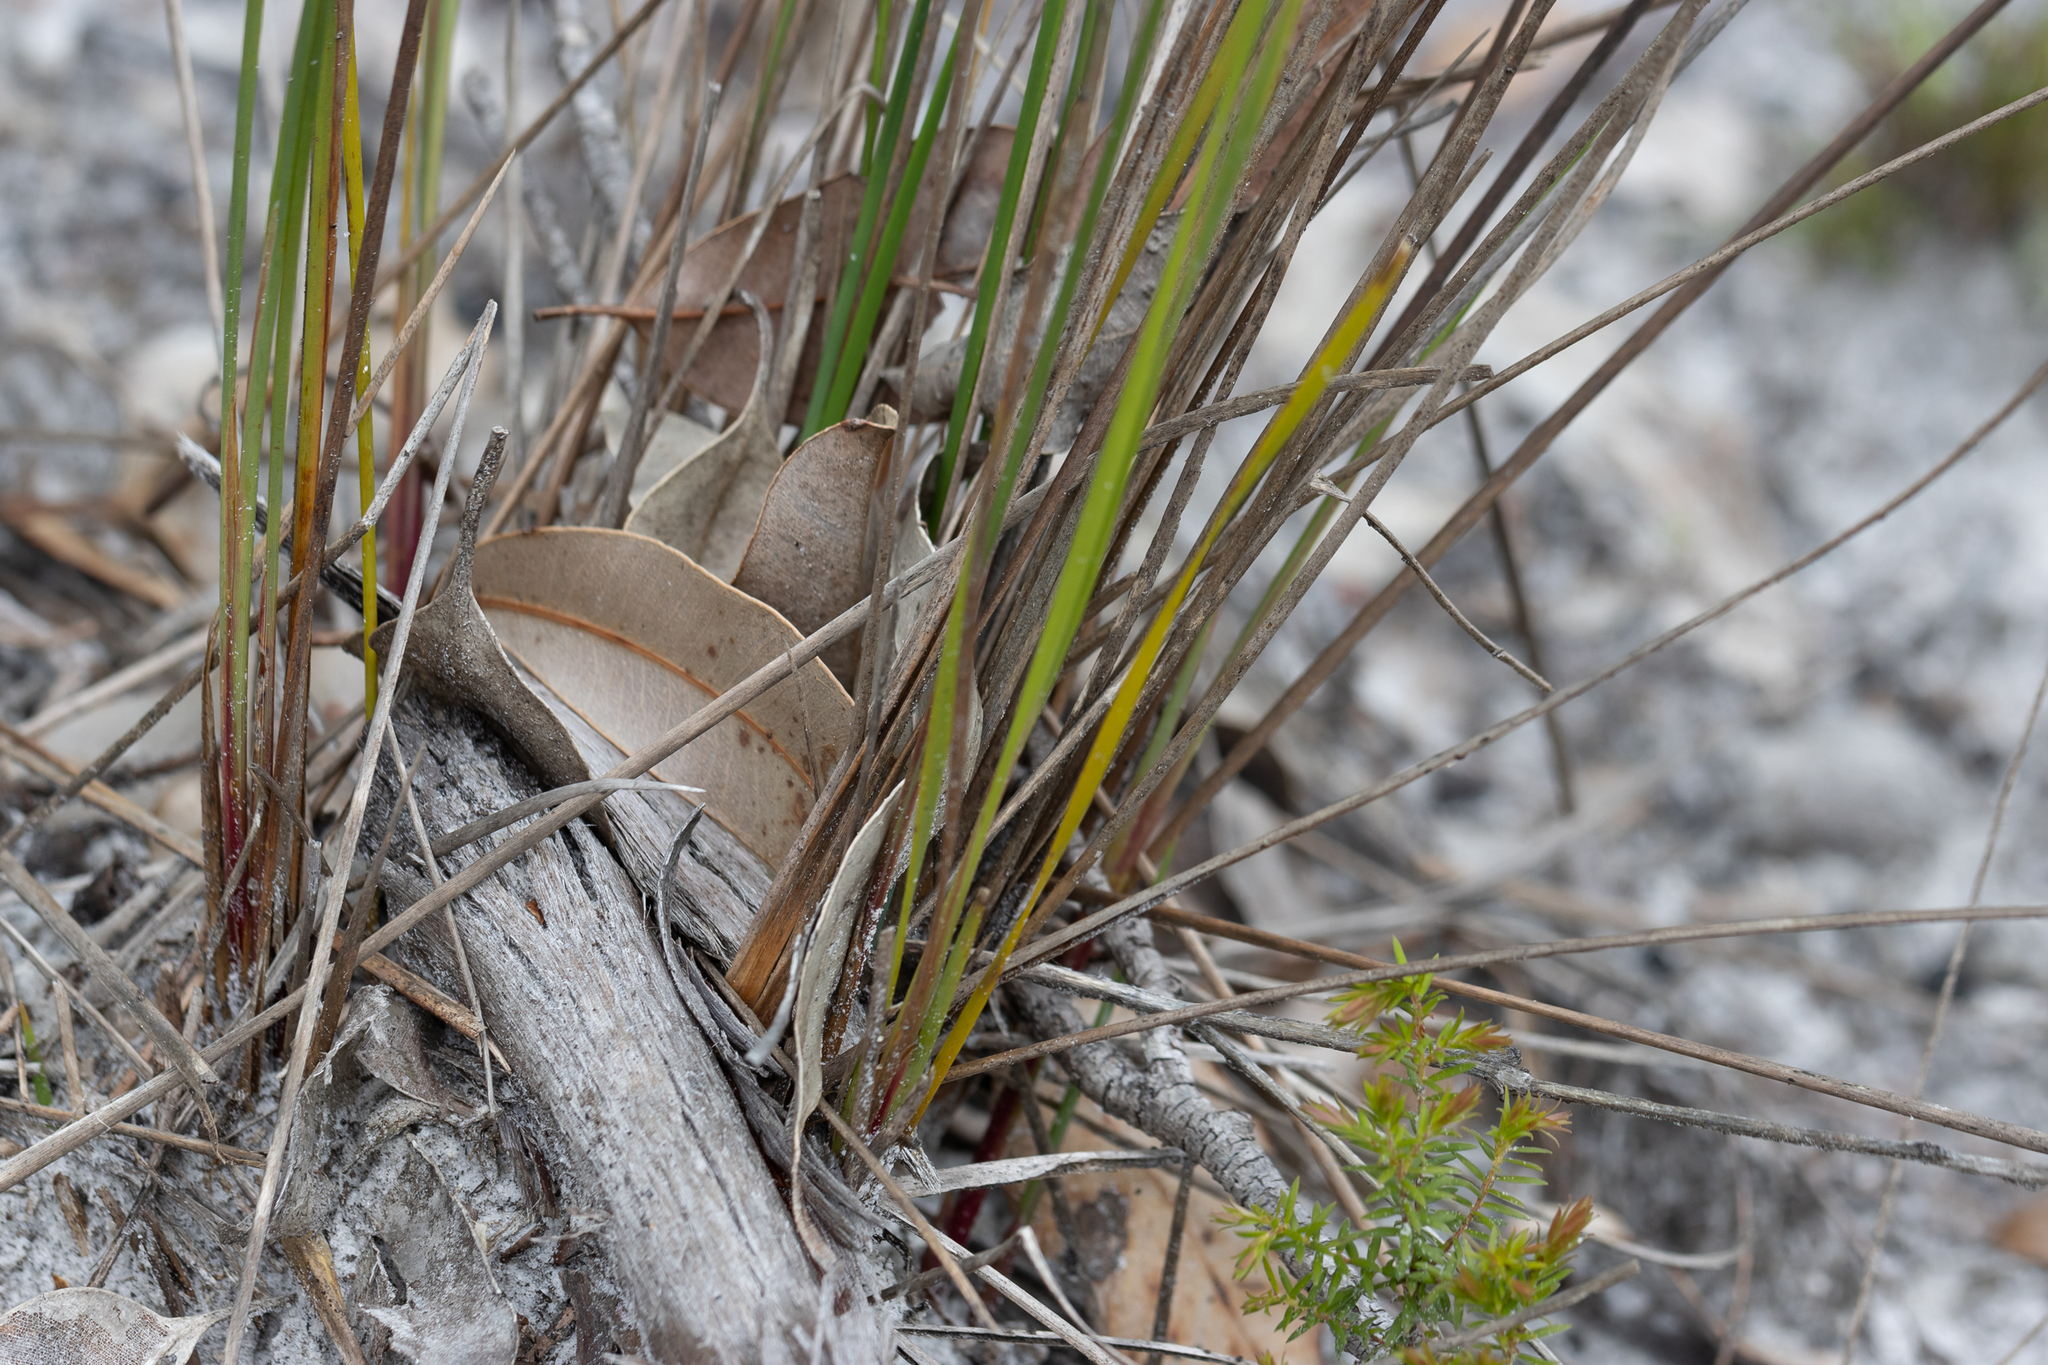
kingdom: Plantae
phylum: Tracheophyta
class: Liliopsida
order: Asparagales
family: Asphodelaceae
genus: Johnsonia
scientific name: Johnsonia lupulina
